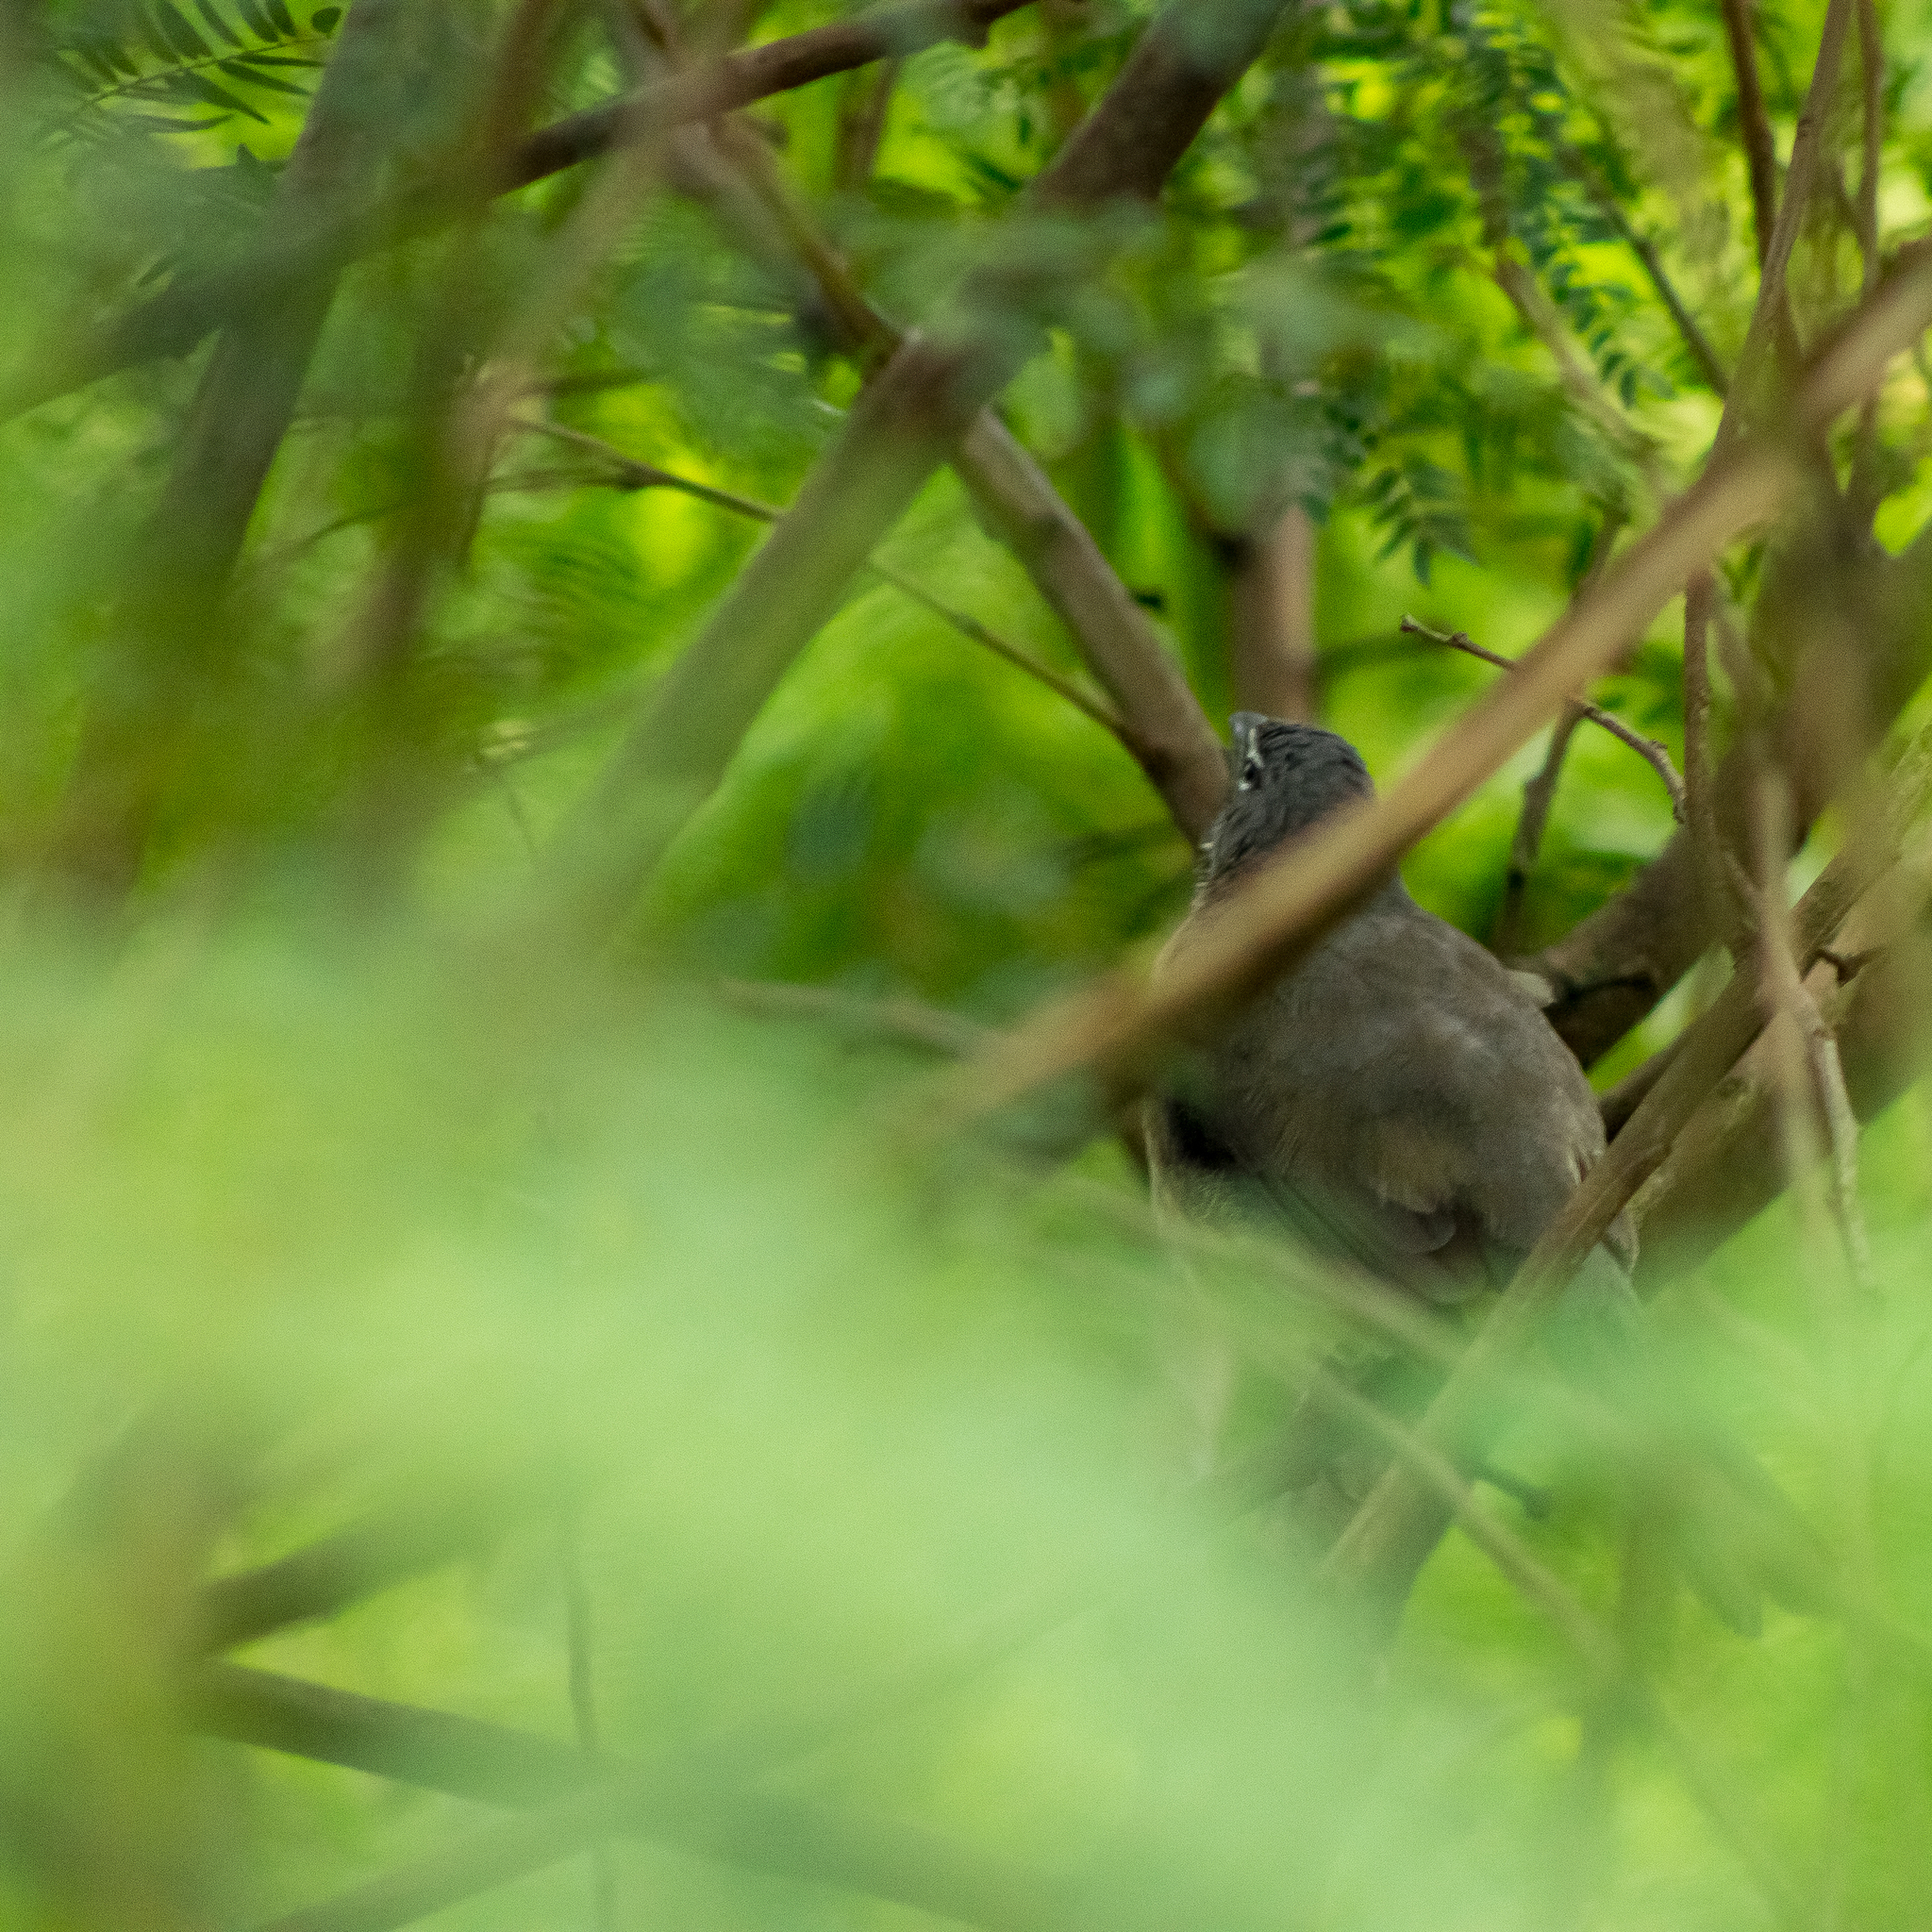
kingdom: Animalia
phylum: Chordata
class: Aves
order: Passeriformes
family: Thraupidae
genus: Saltator
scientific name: Saltator olivascens
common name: Caribbean grey saltator
